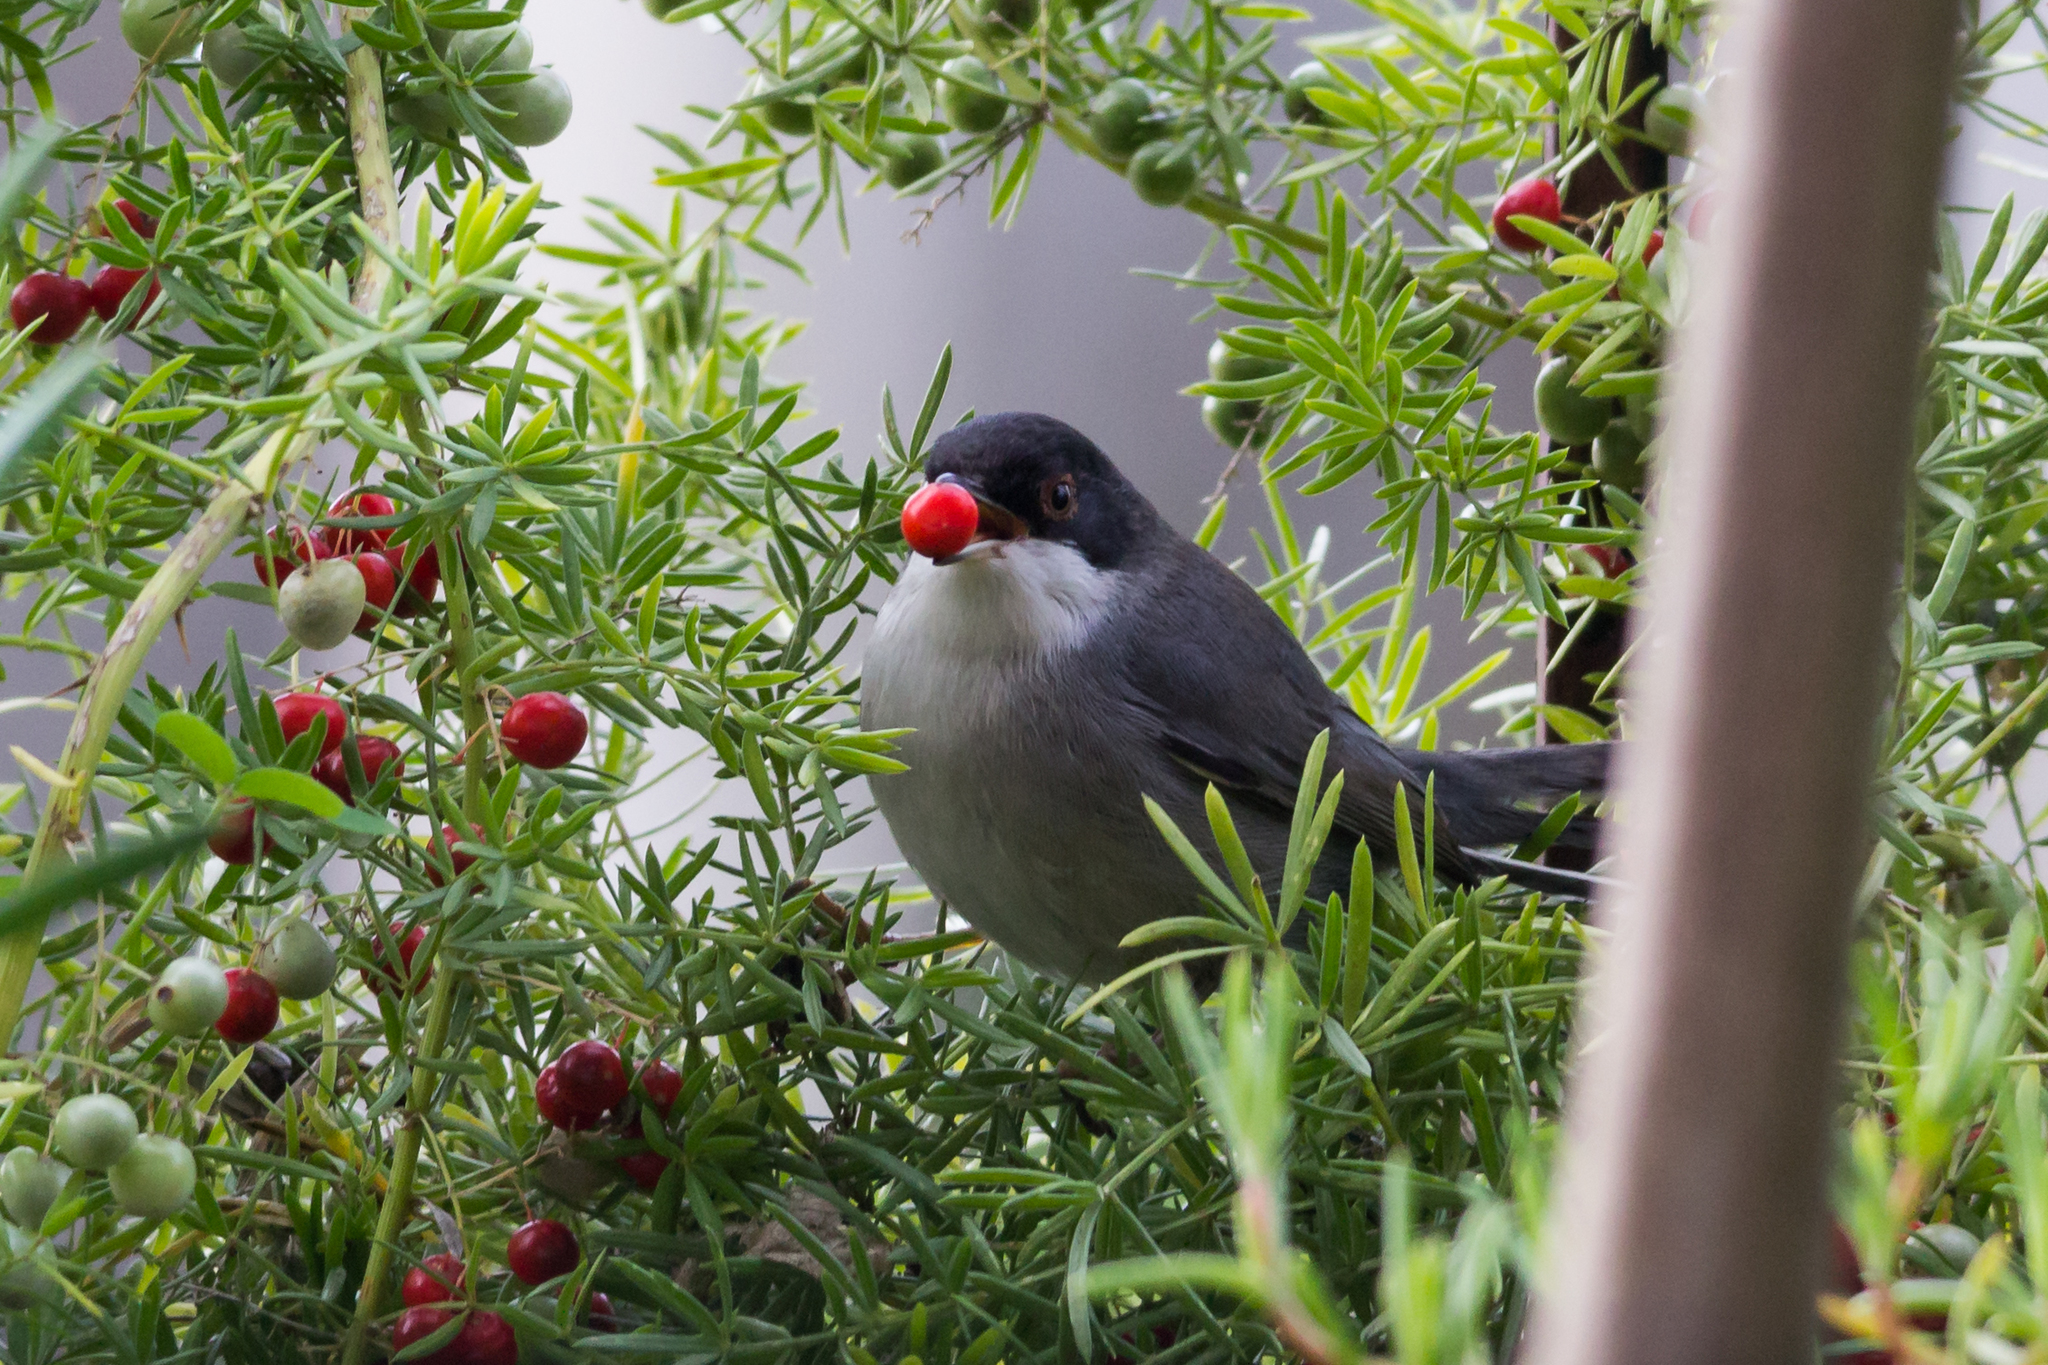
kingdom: Animalia
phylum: Chordata
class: Aves
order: Passeriformes
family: Sylviidae
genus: Curruca
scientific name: Curruca melanocephala
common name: Sardinian warbler
